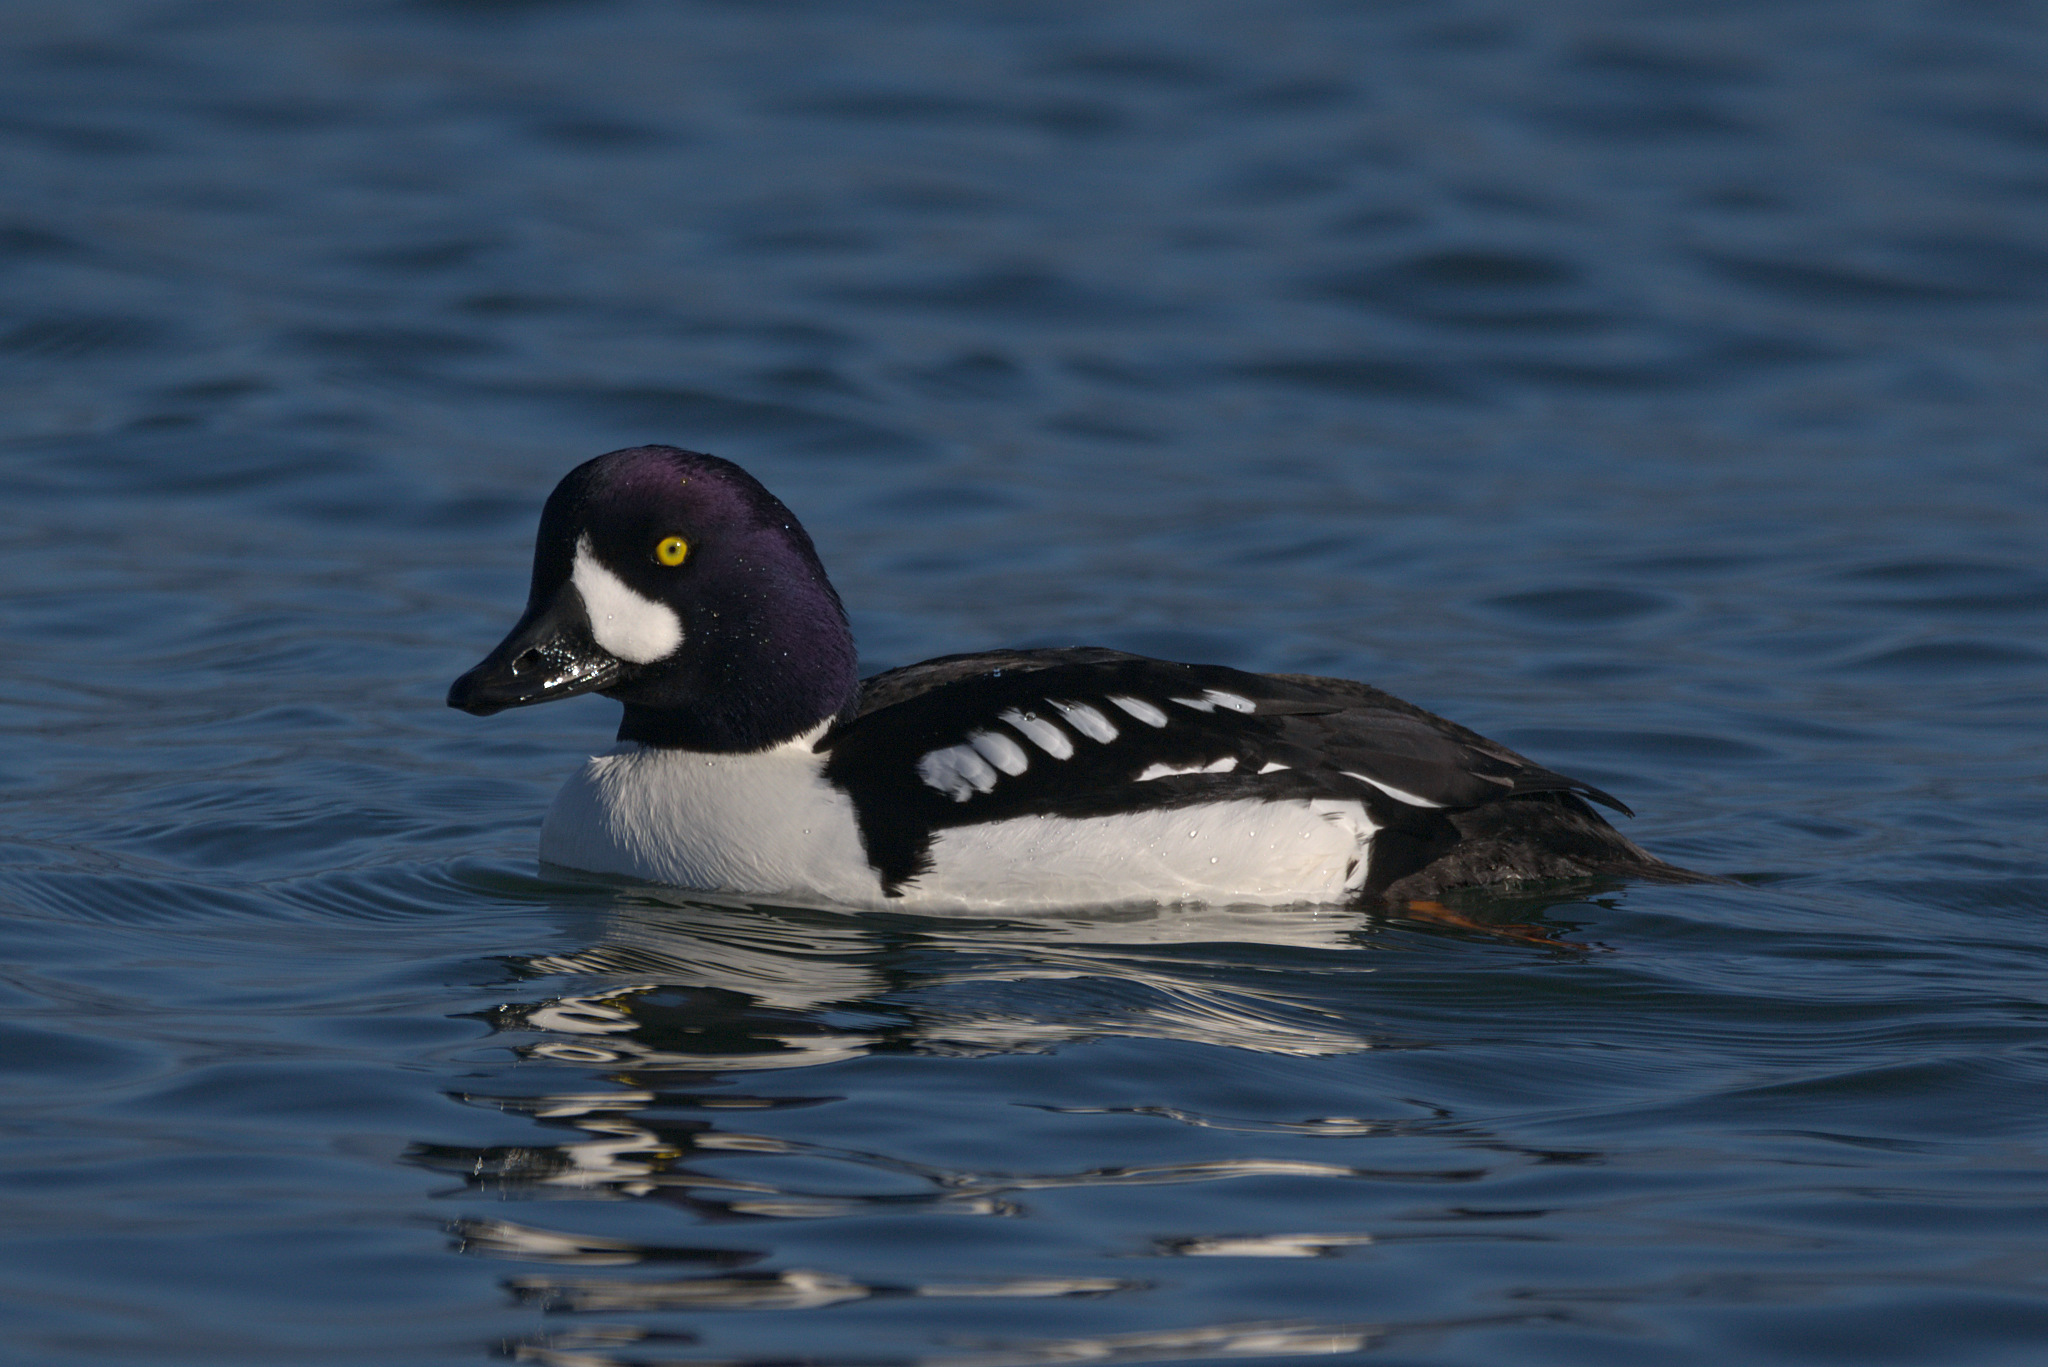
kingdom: Animalia
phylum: Chordata
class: Aves
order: Anseriformes
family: Anatidae
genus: Bucephala
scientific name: Bucephala islandica
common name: Barrow's goldeneye
